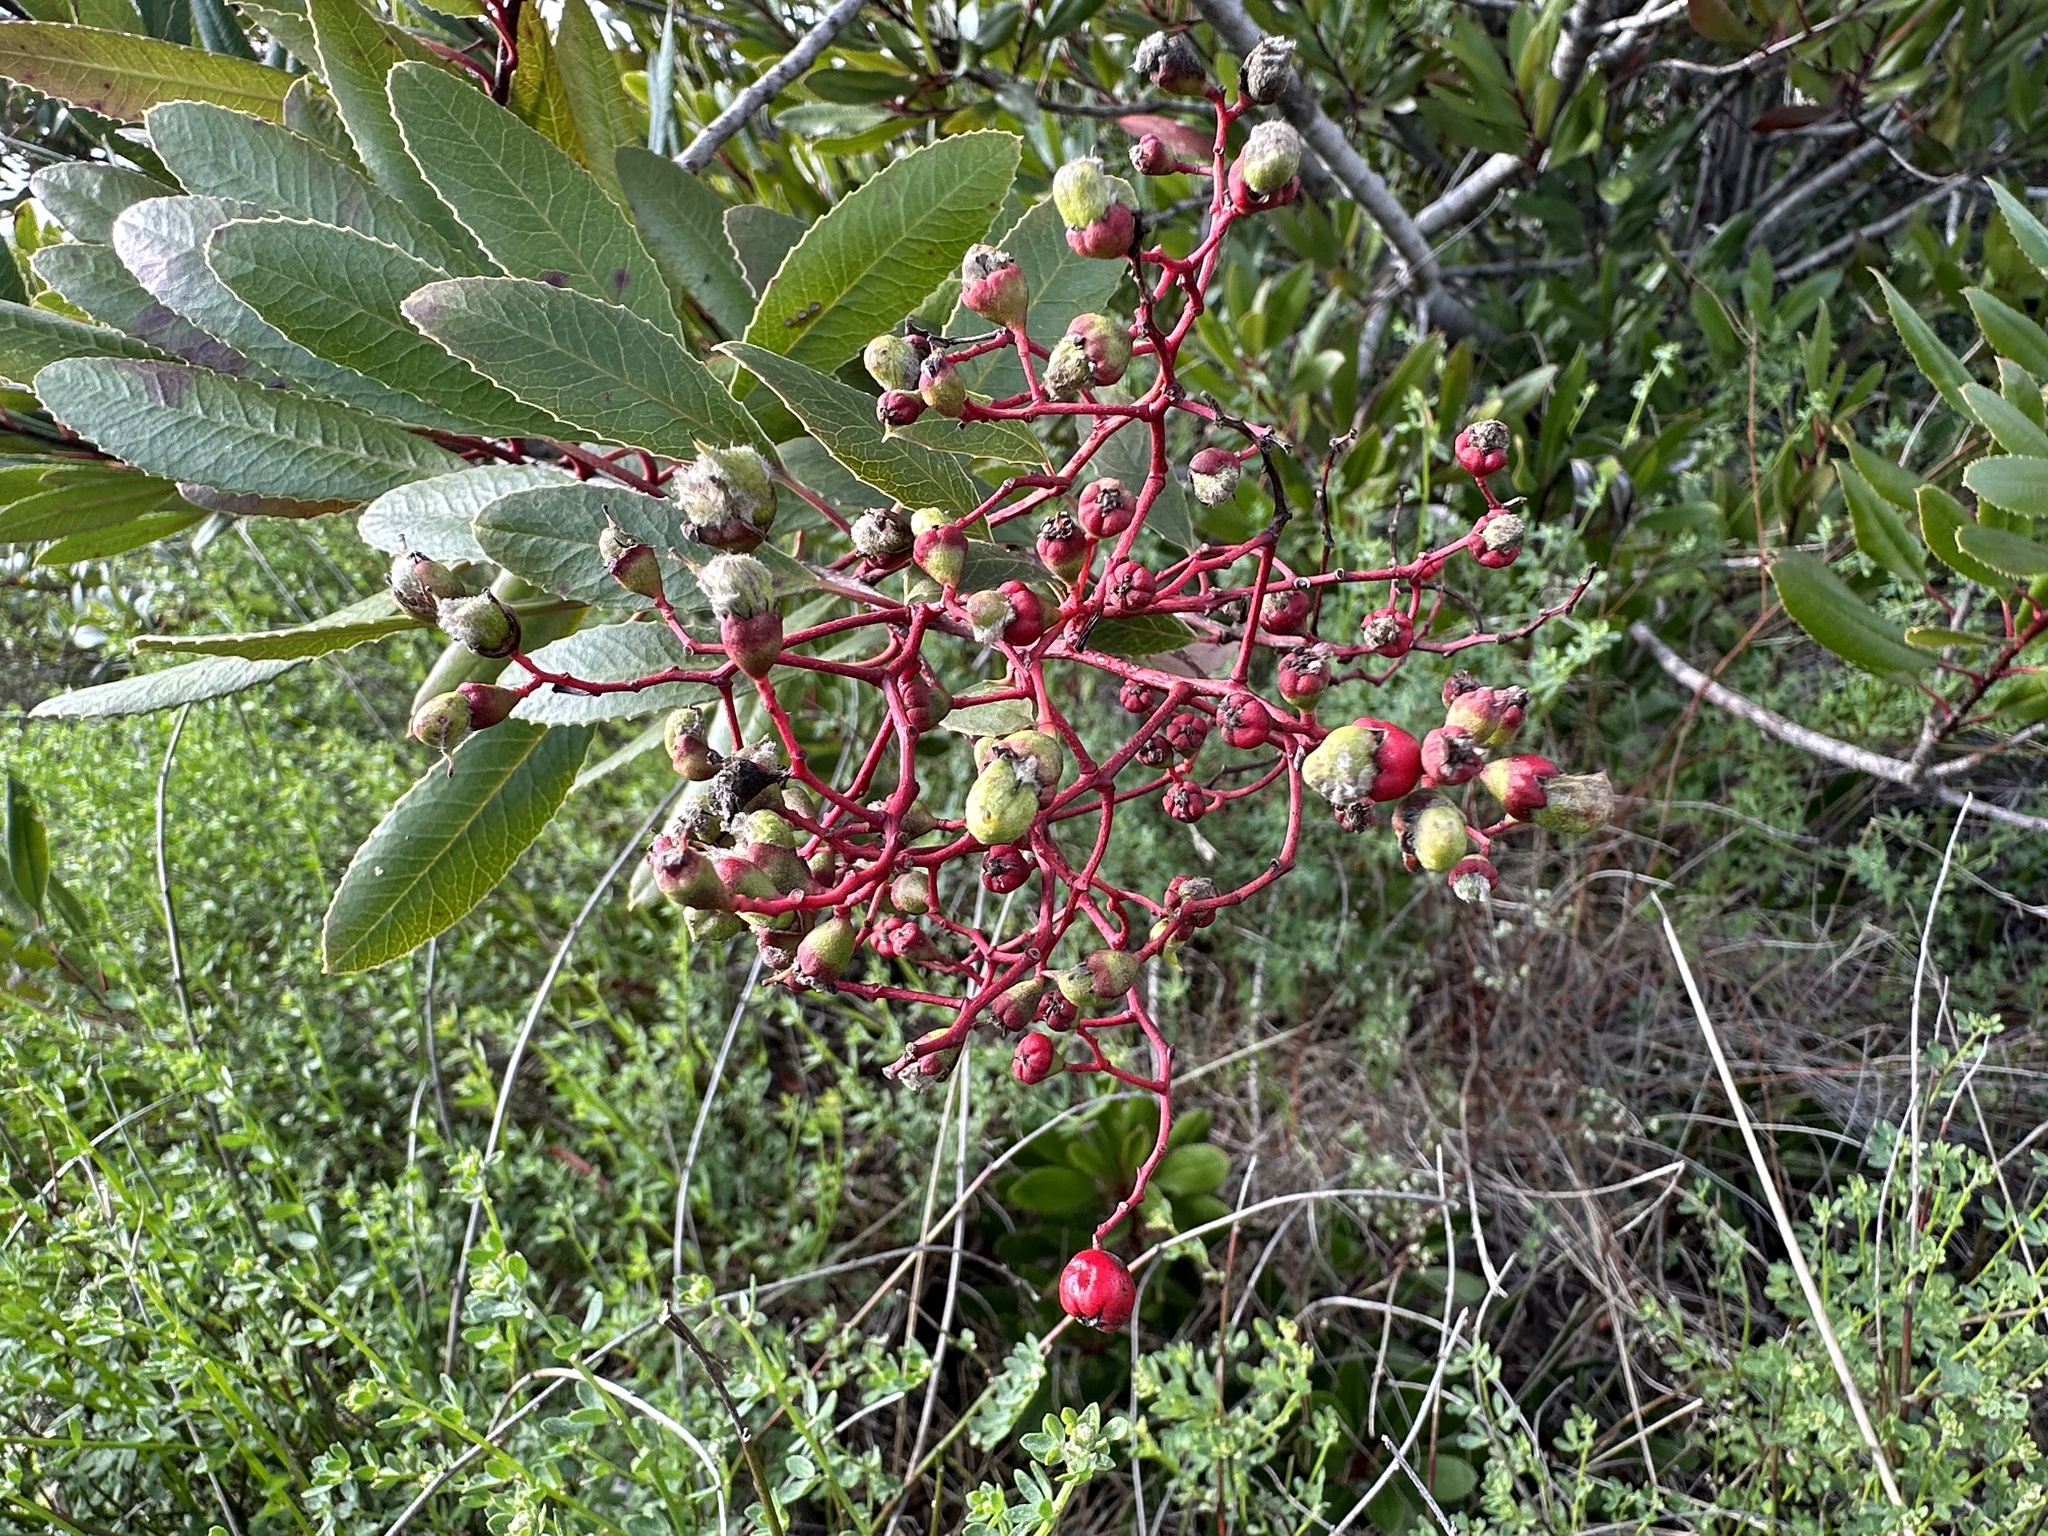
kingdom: Plantae
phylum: Tracheophyta
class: Magnoliopsida
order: Rosales
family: Rosaceae
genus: Heteromeles
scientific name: Heteromeles arbutifolia
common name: California-holly
